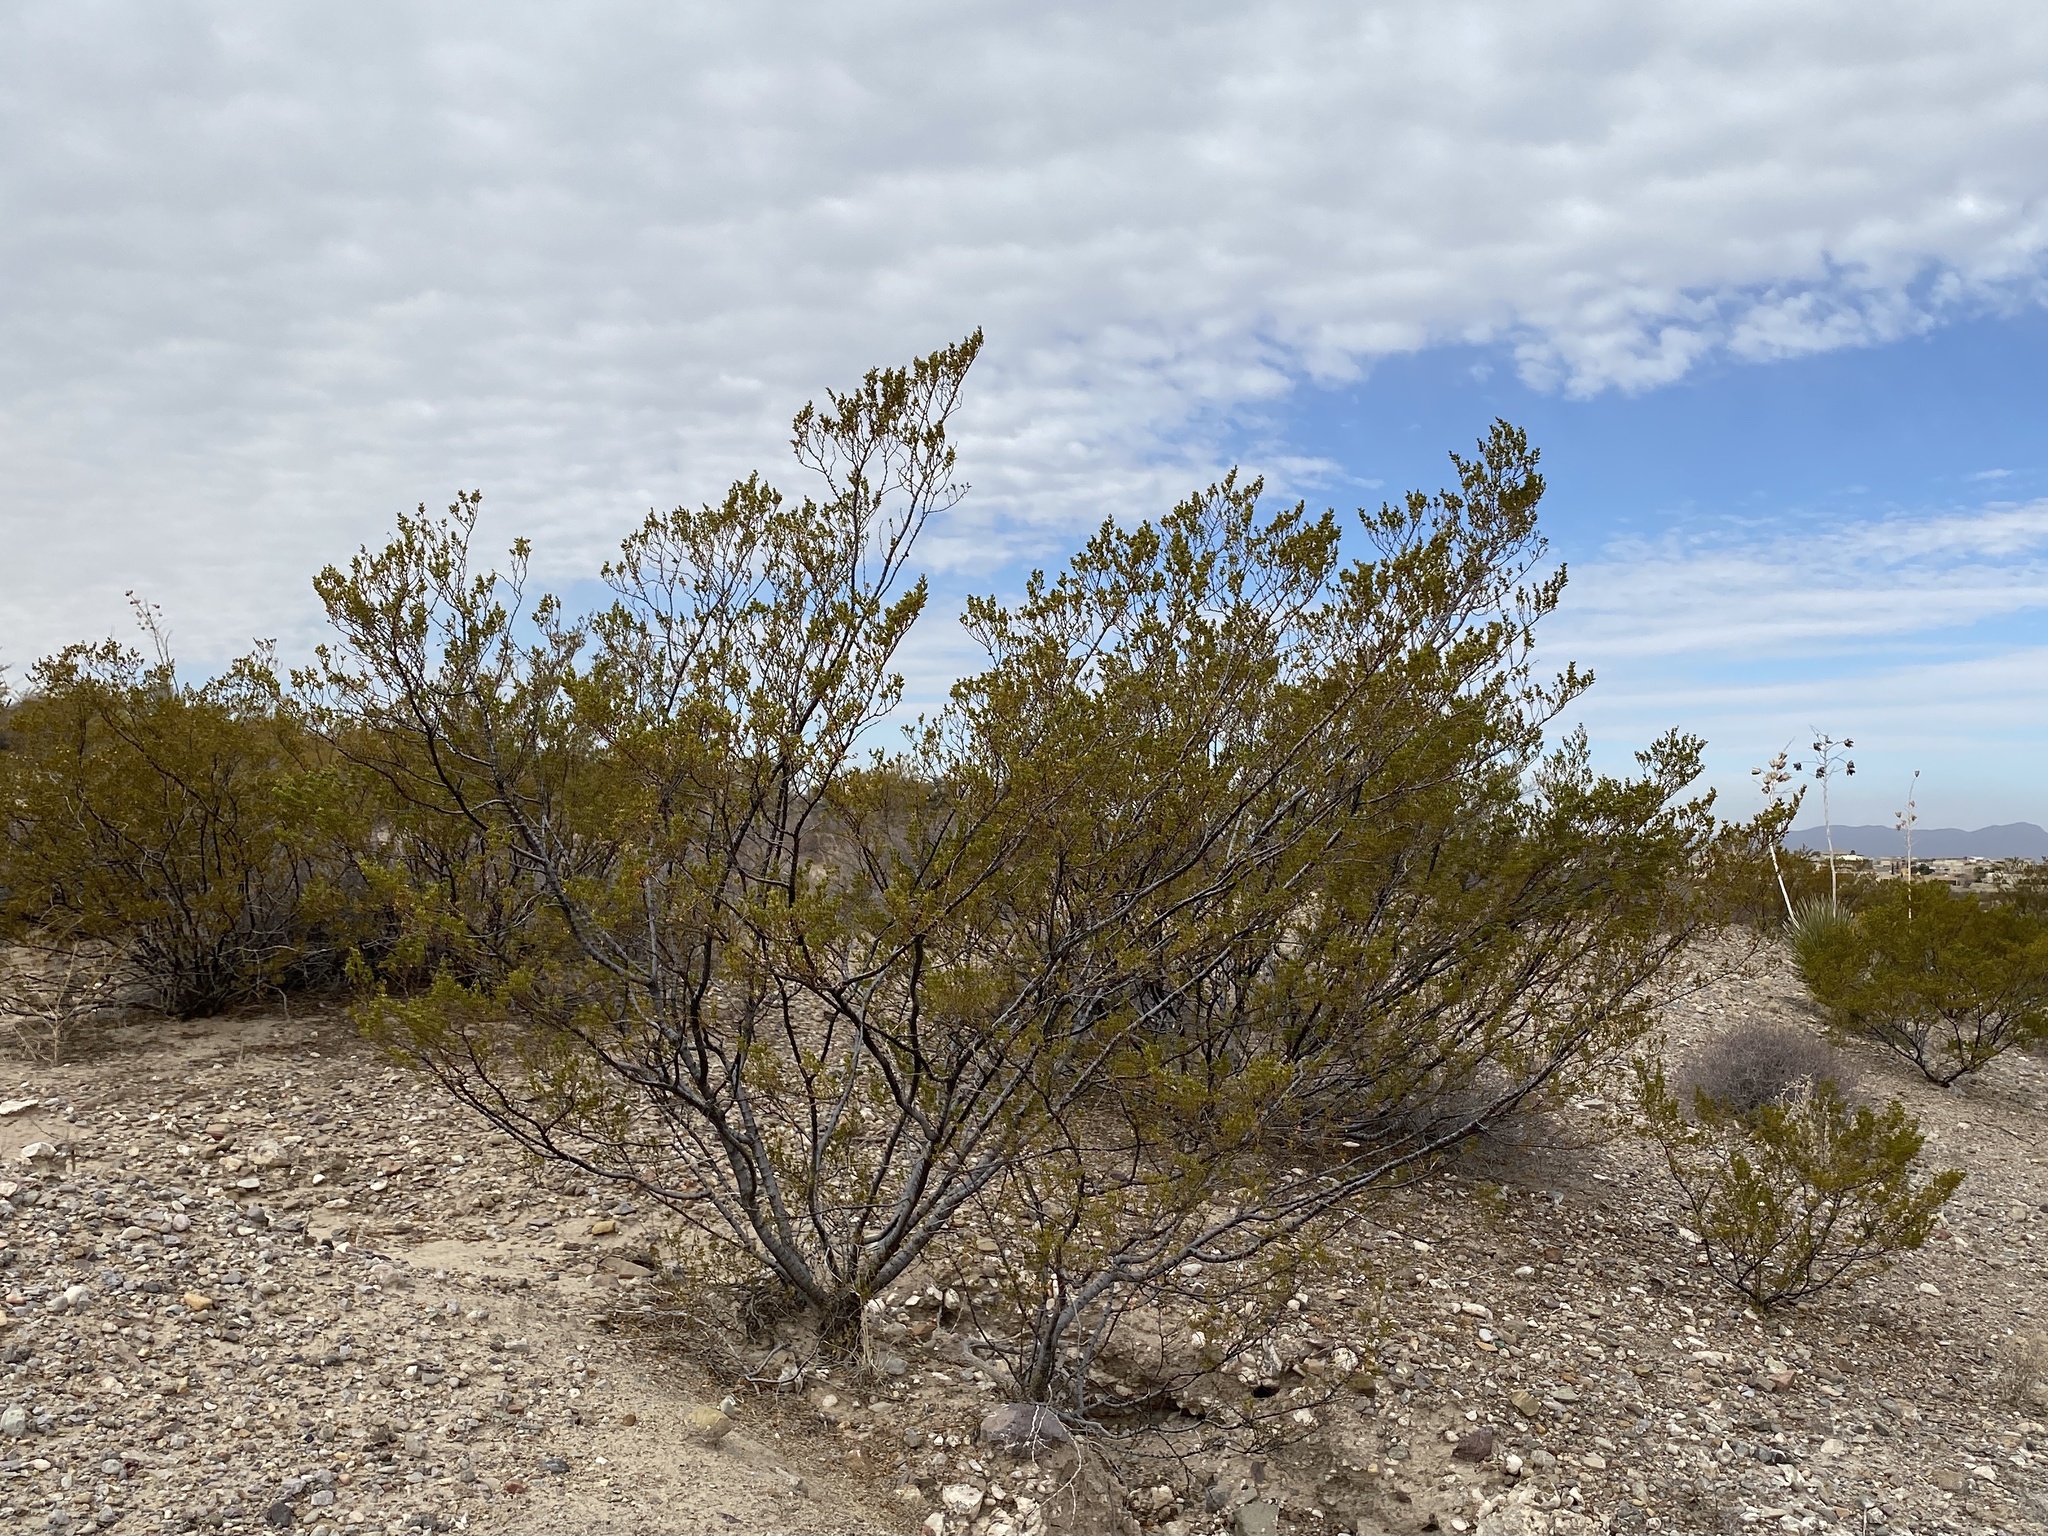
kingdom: Plantae
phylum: Tracheophyta
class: Magnoliopsida
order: Zygophyllales
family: Zygophyllaceae
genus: Larrea
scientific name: Larrea tridentata
